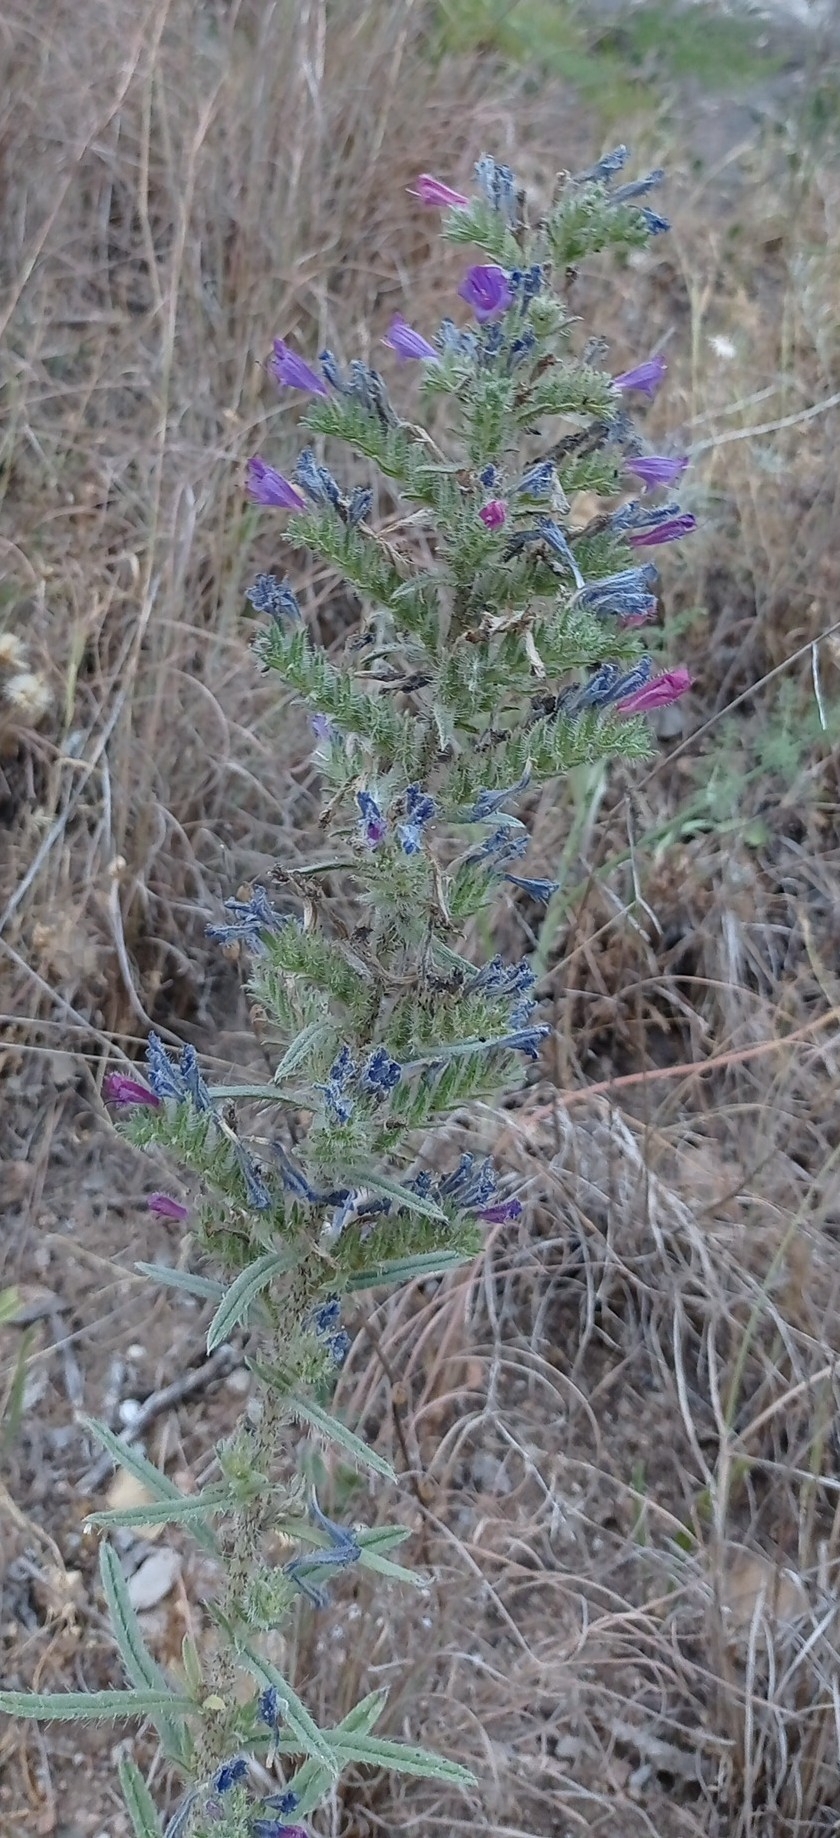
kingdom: Plantae
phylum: Tracheophyta
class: Magnoliopsida
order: Boraginales
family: Boraginaceae
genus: Echium
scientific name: Echium tuberculatum
